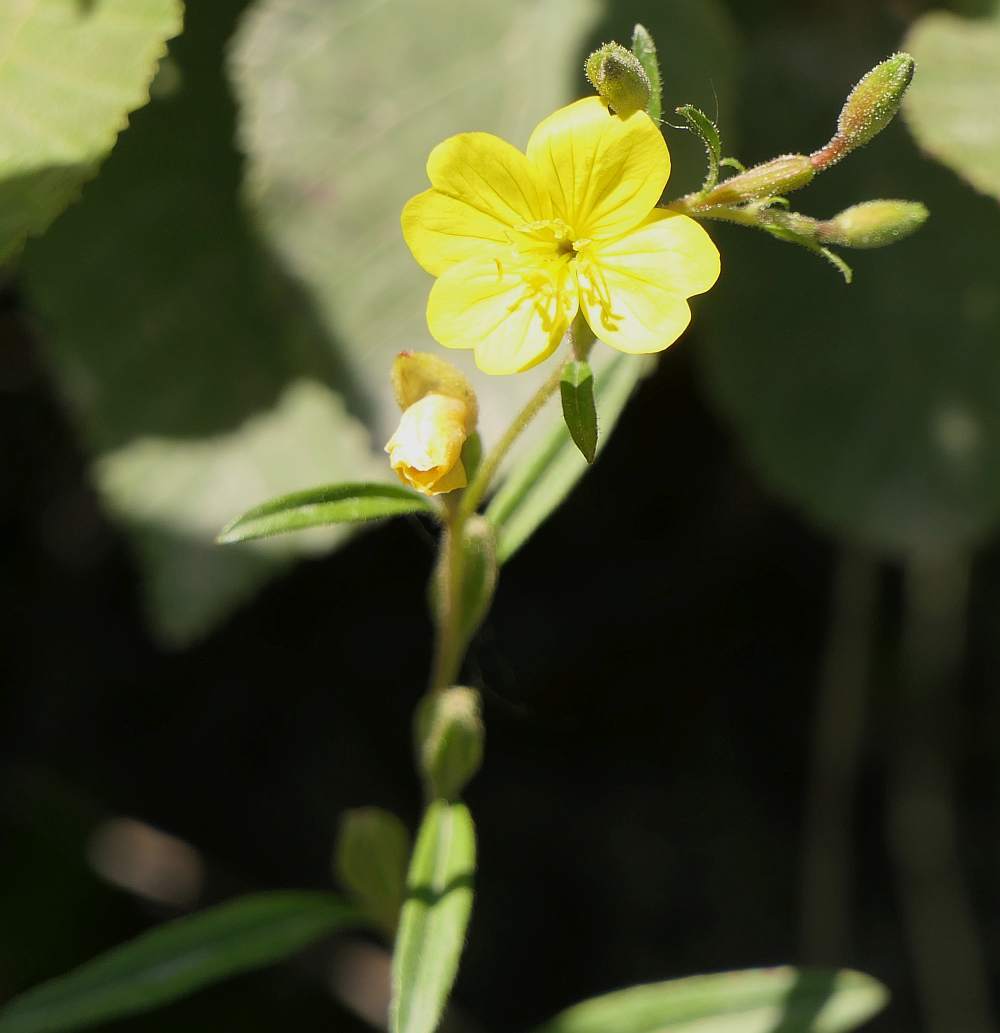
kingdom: Plantae
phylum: Tracheophyta
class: Magnoliopsida
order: Myrtales
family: Onagraceae
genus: Oenothera
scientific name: Oenothera perennis
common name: Small sundrops
